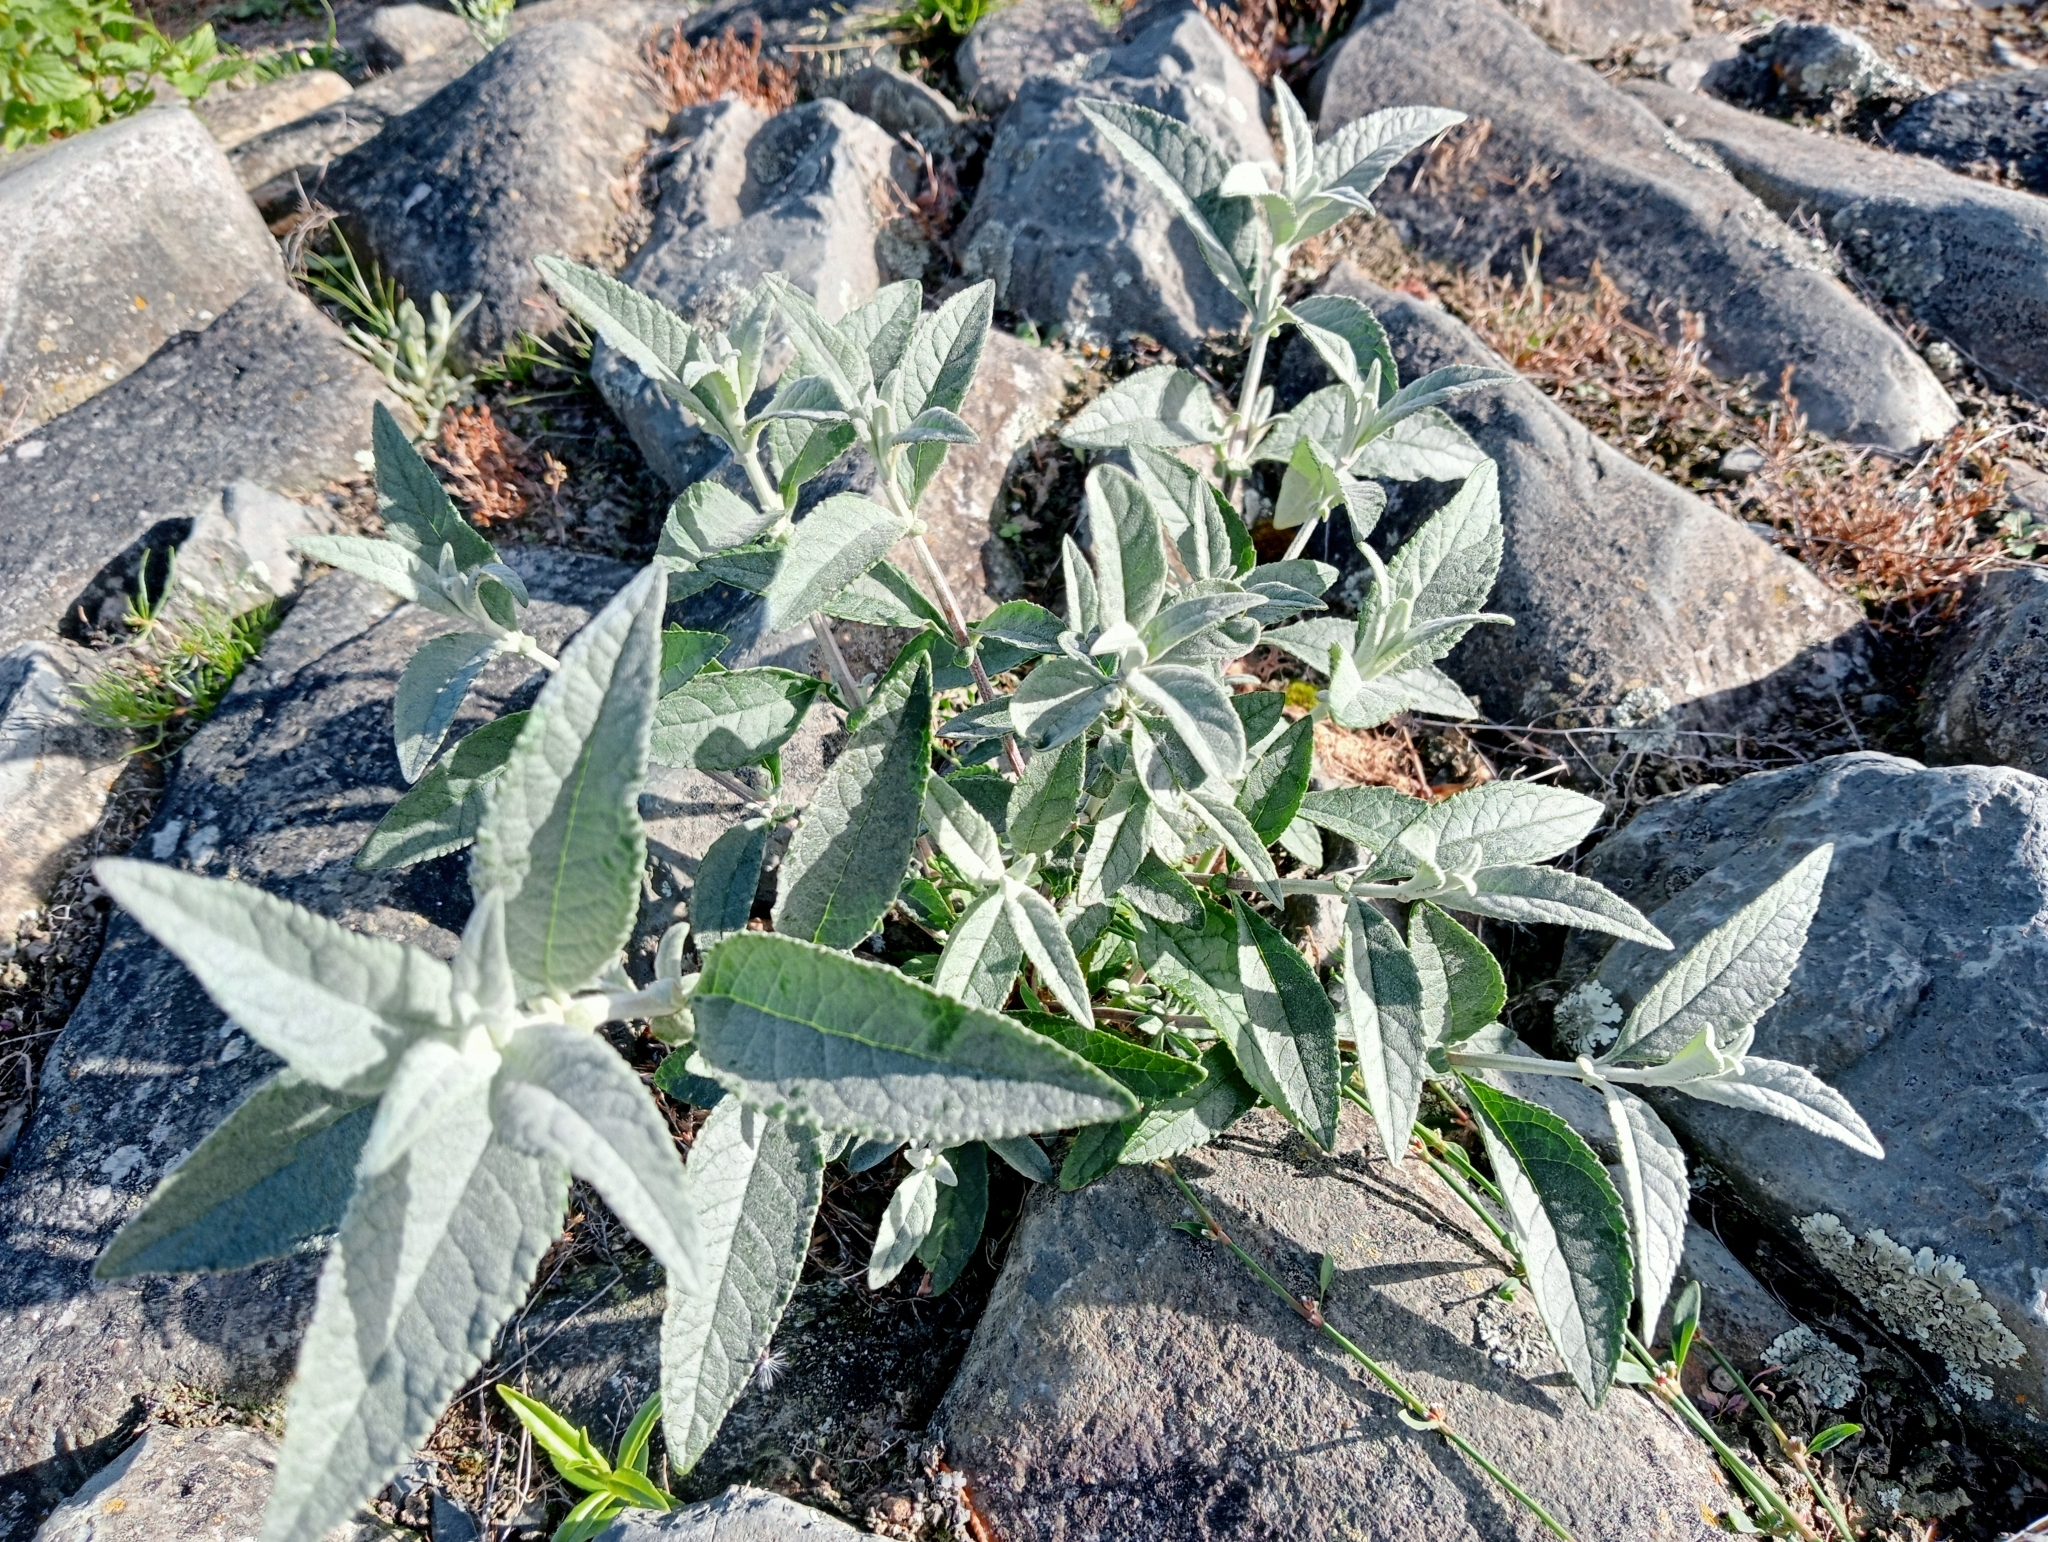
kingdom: Plantae
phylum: Tracheophyta
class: Magnoliopsida
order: Lamiales
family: Scrophulariaceae
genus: Buddleja
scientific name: Buddleja davidii
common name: Butterfly-bush
